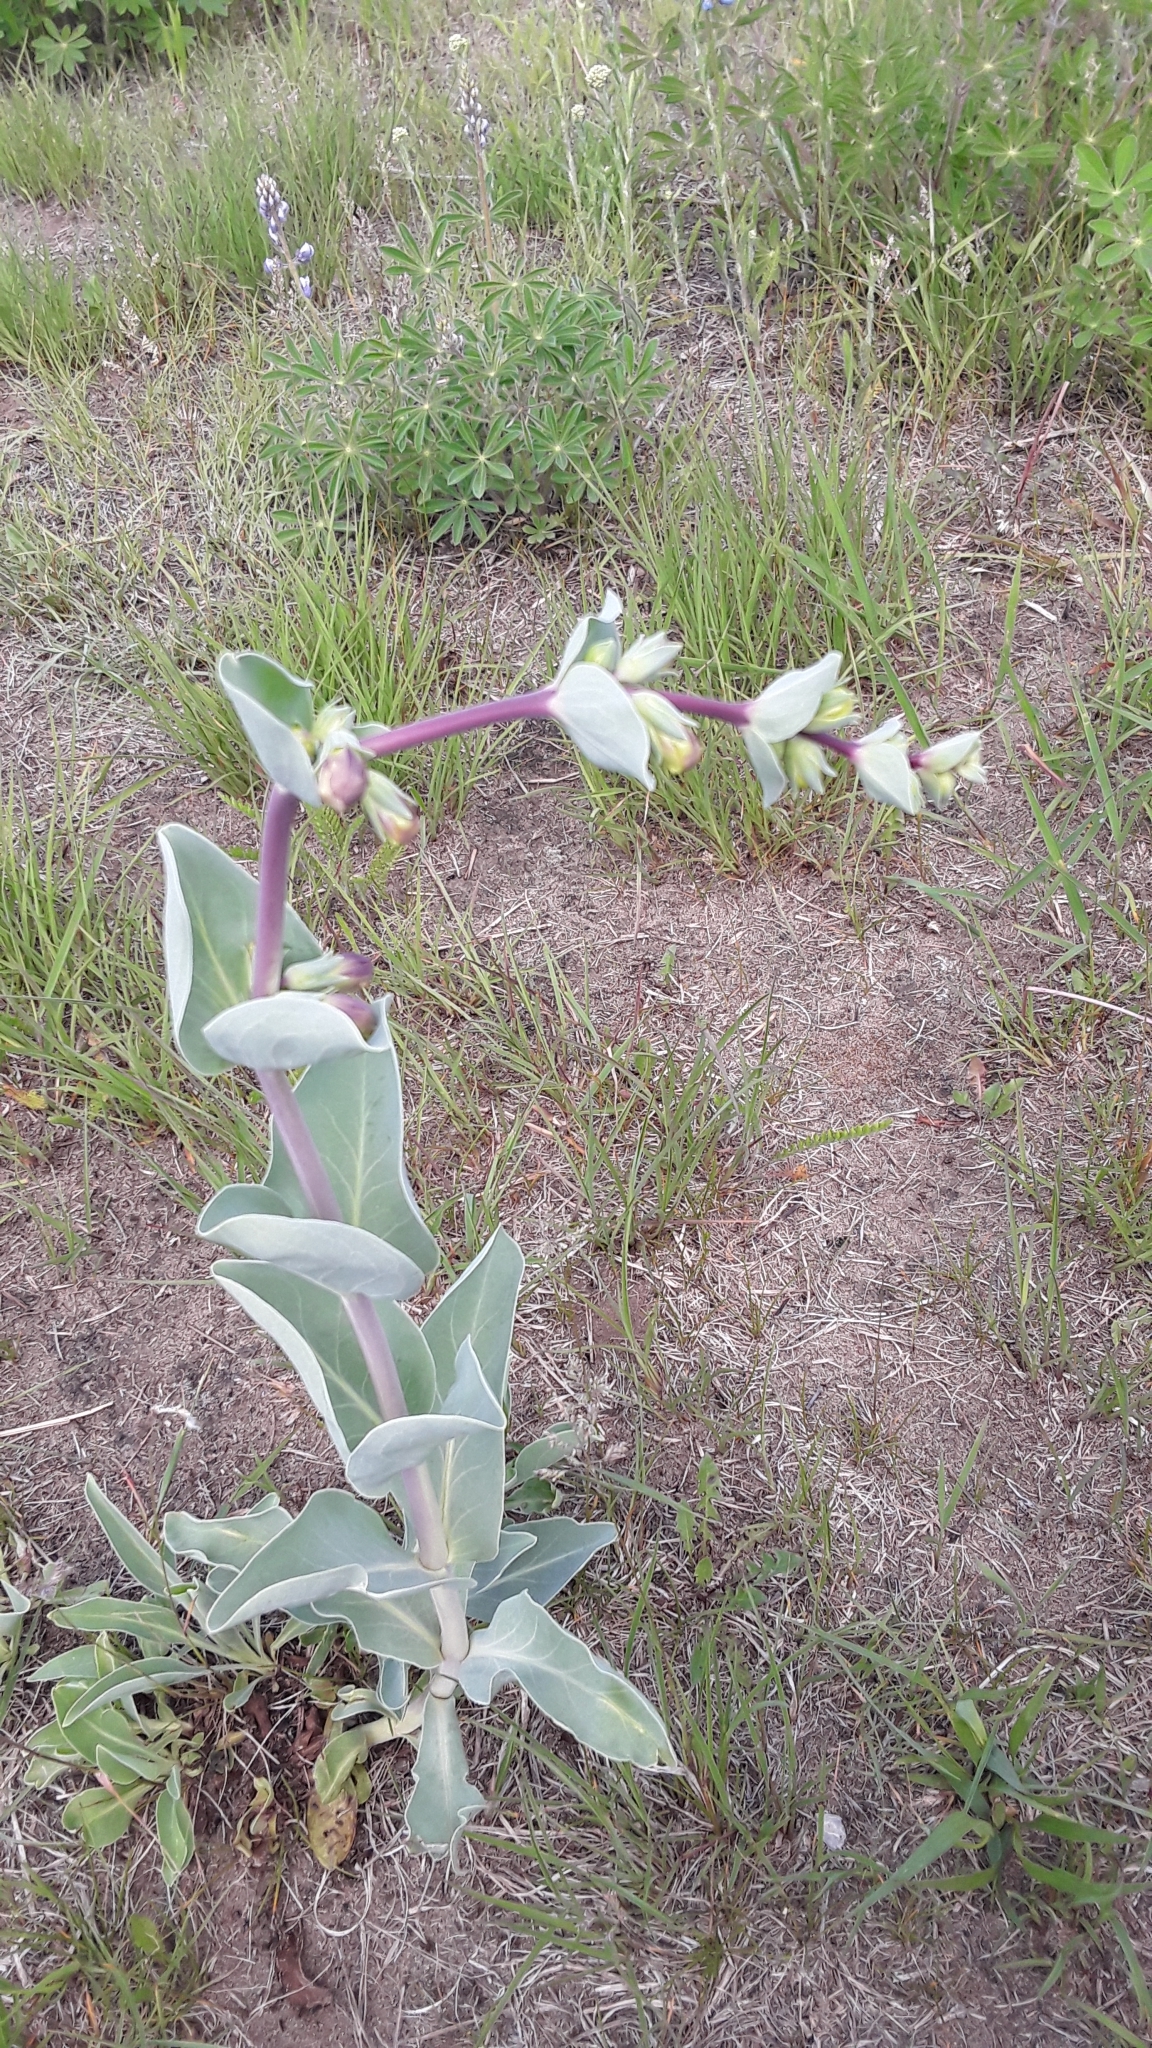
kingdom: Plantae
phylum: Tracheophyta
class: Magnoliopsida
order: Lamiales
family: Plantaginaceae
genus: Penstemon
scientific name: Penstemon
